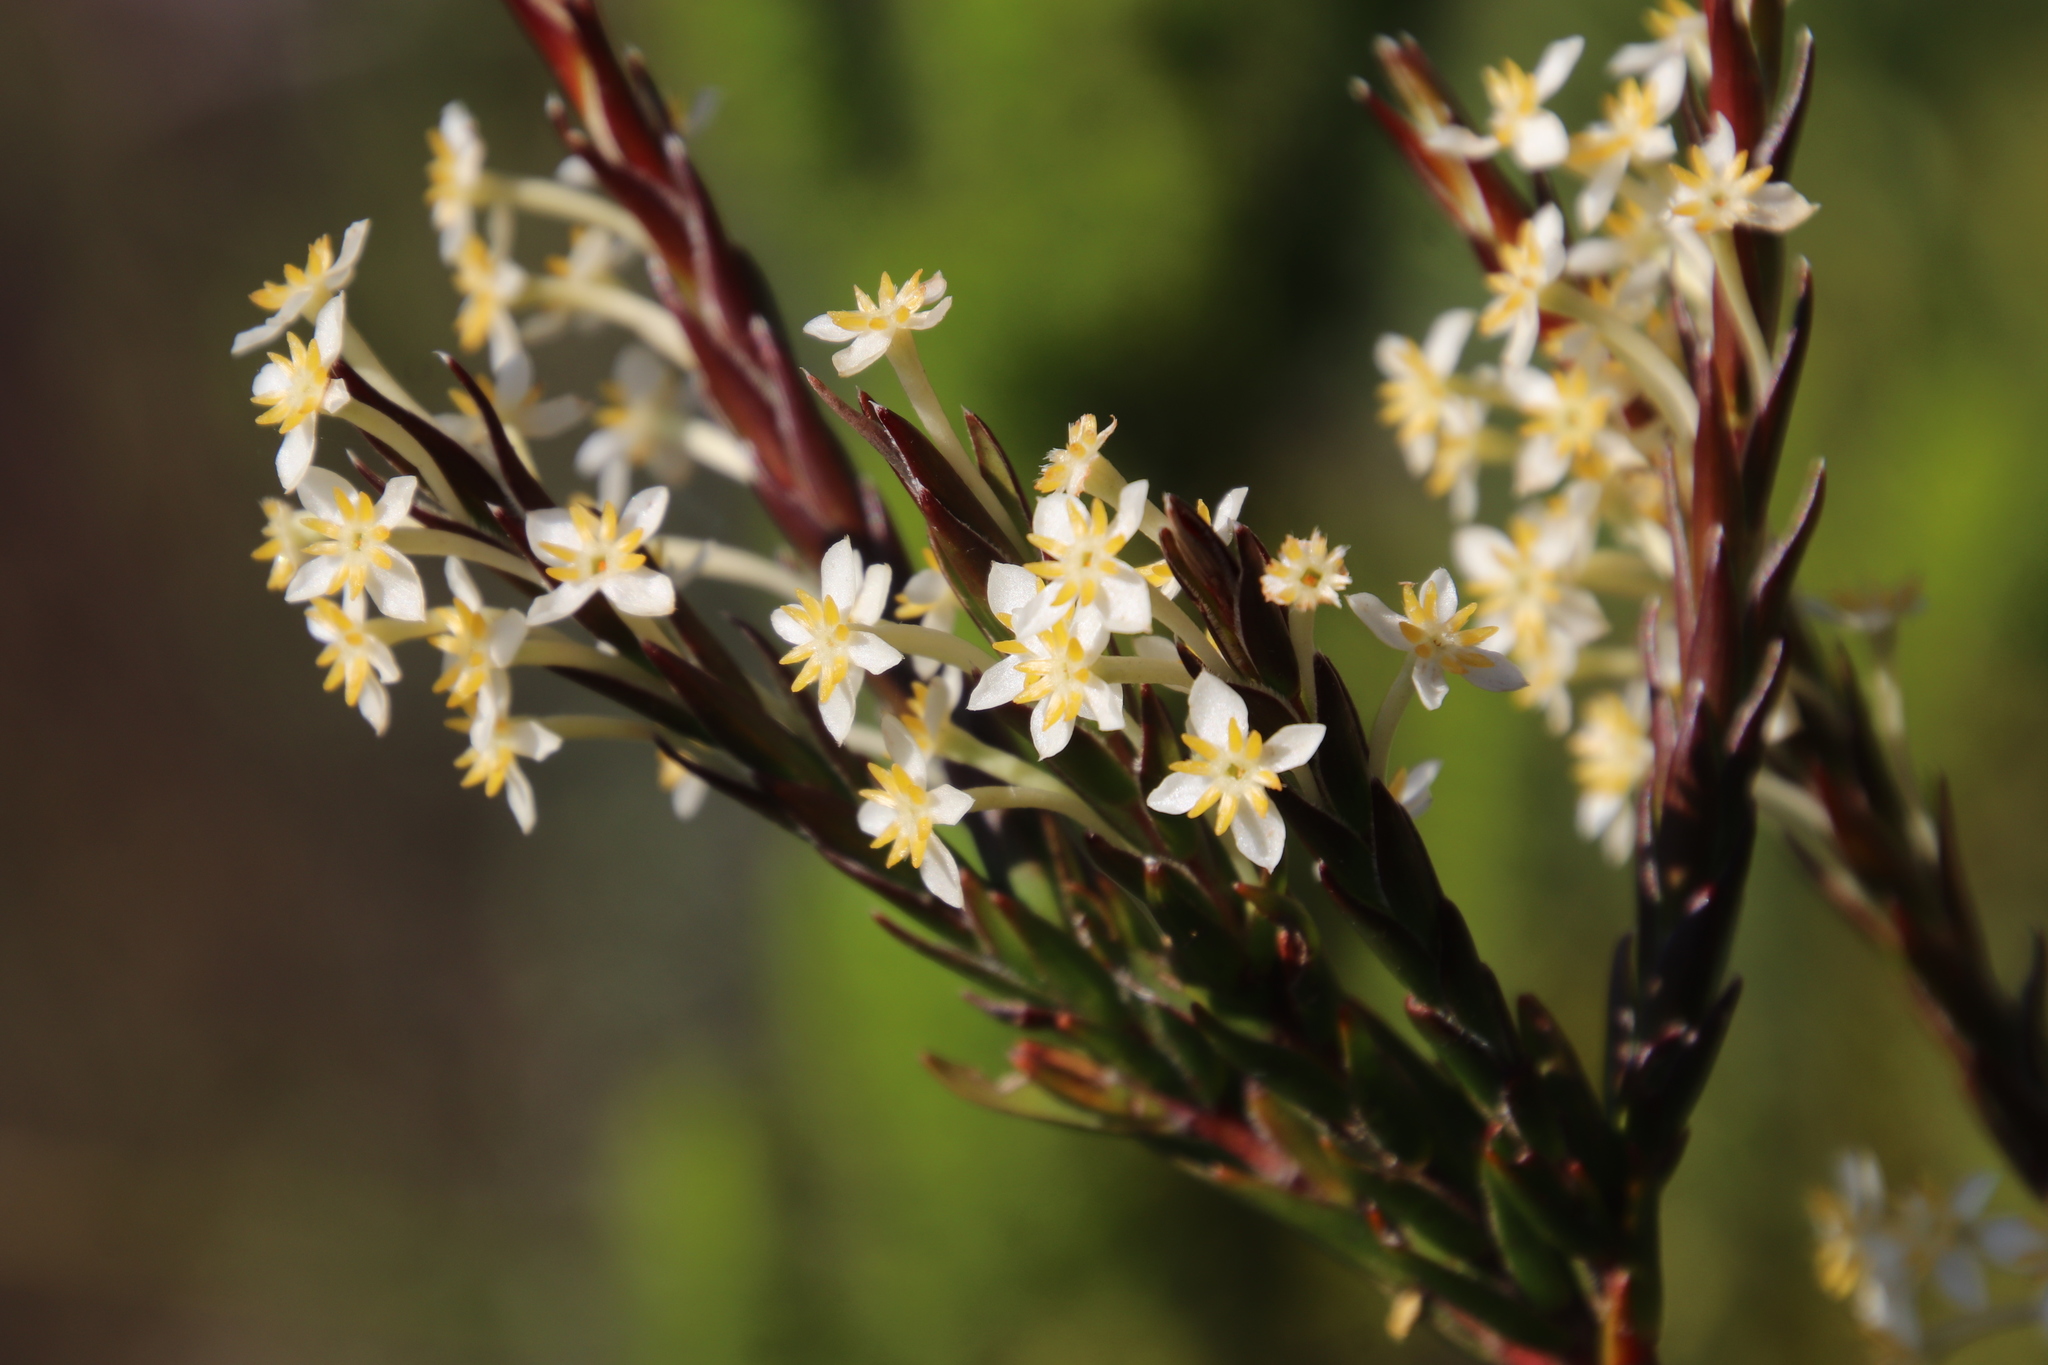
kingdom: Plantae
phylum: Tracheophyta
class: Magnoliopsida
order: Malvales
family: Thymelaeaceae
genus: Struthiola
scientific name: Struthiola ciliata
